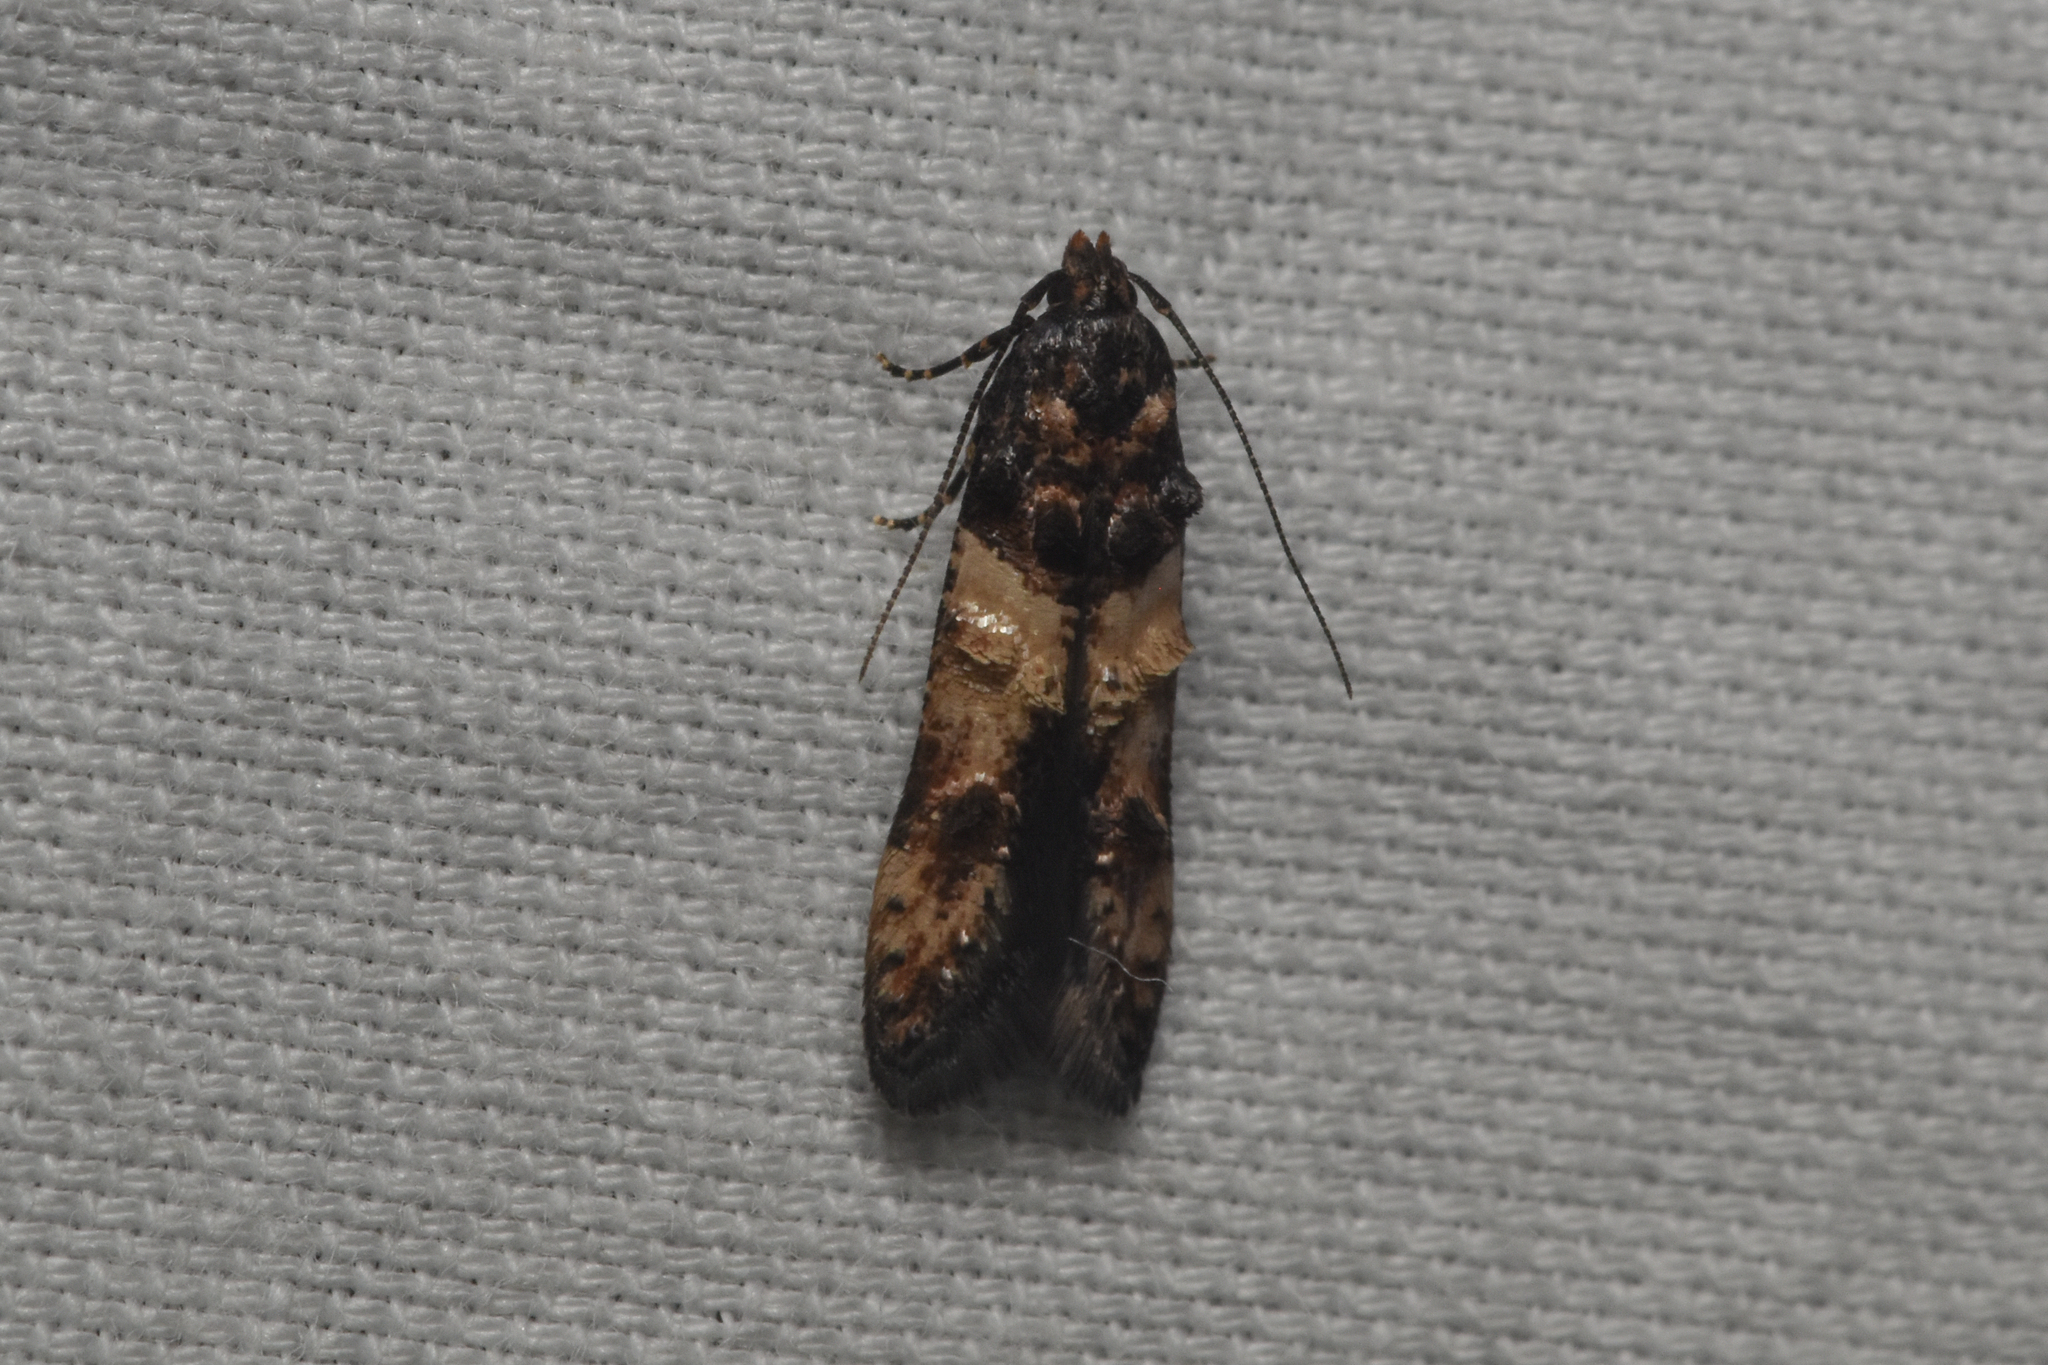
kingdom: Animalia
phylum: Arthropoda
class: Insecta
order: Lepidoptera
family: Cosmopterigidae
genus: Walshia
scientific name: Walshia miscecolorella
